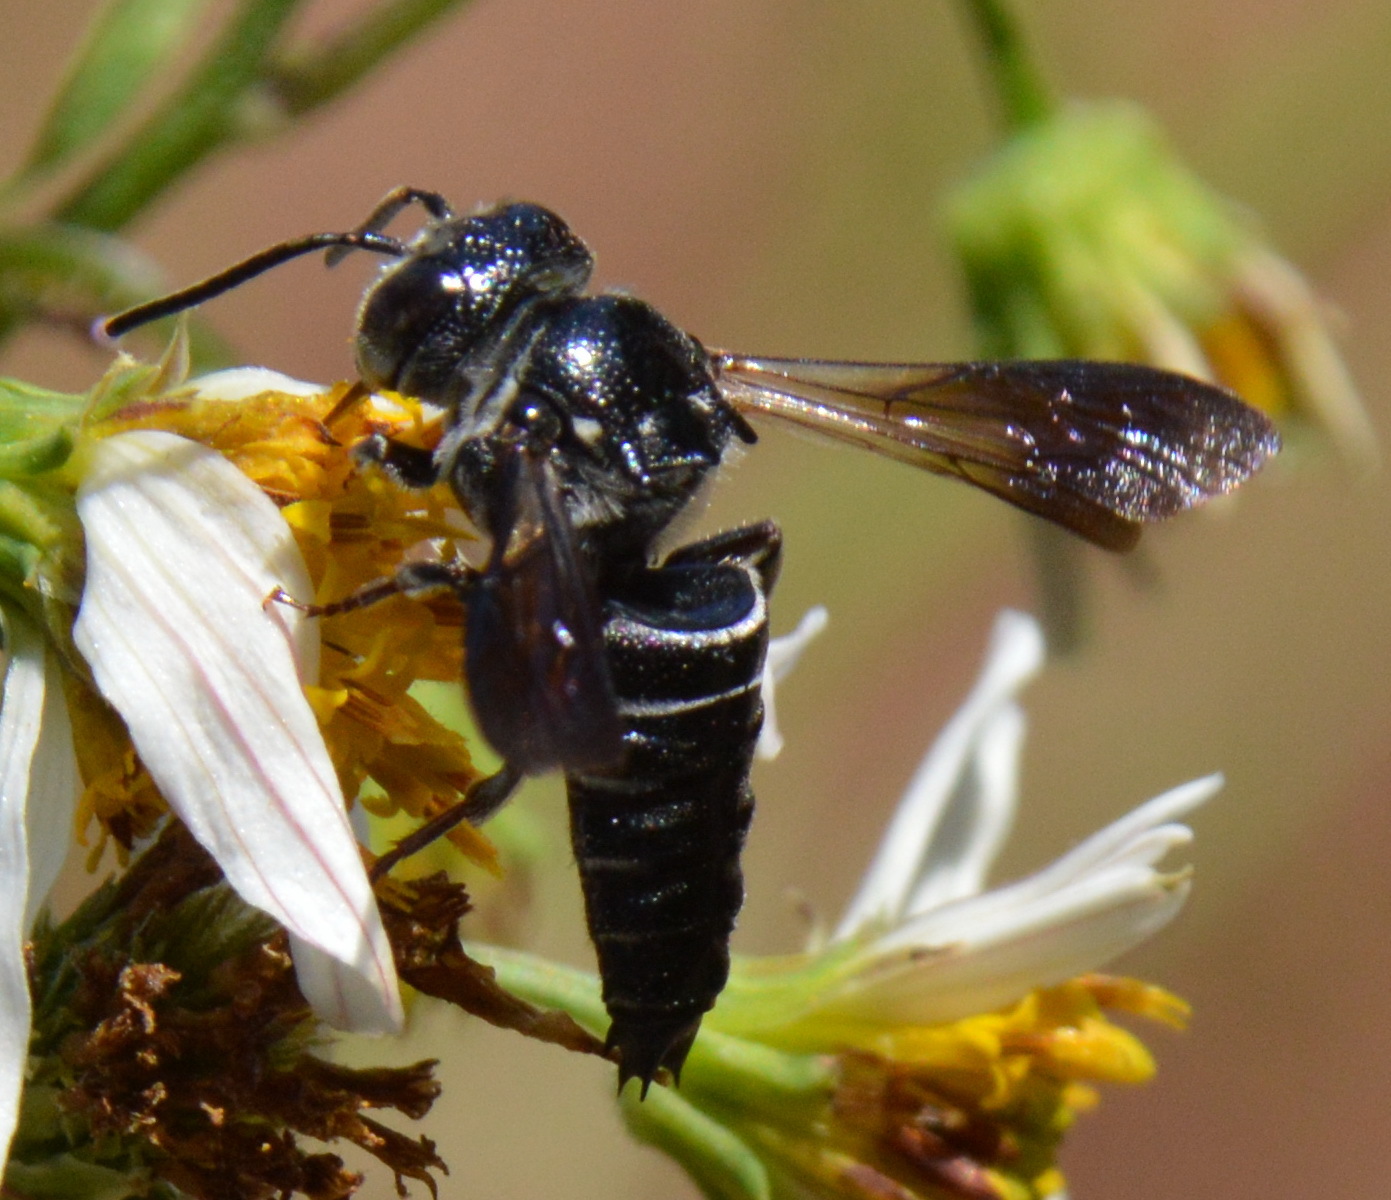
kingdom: Animalia
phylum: Arthropoda
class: Insecta
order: Hymenoptera
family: Megachilidae
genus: Coelioxys
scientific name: Coelioxys dolichos
